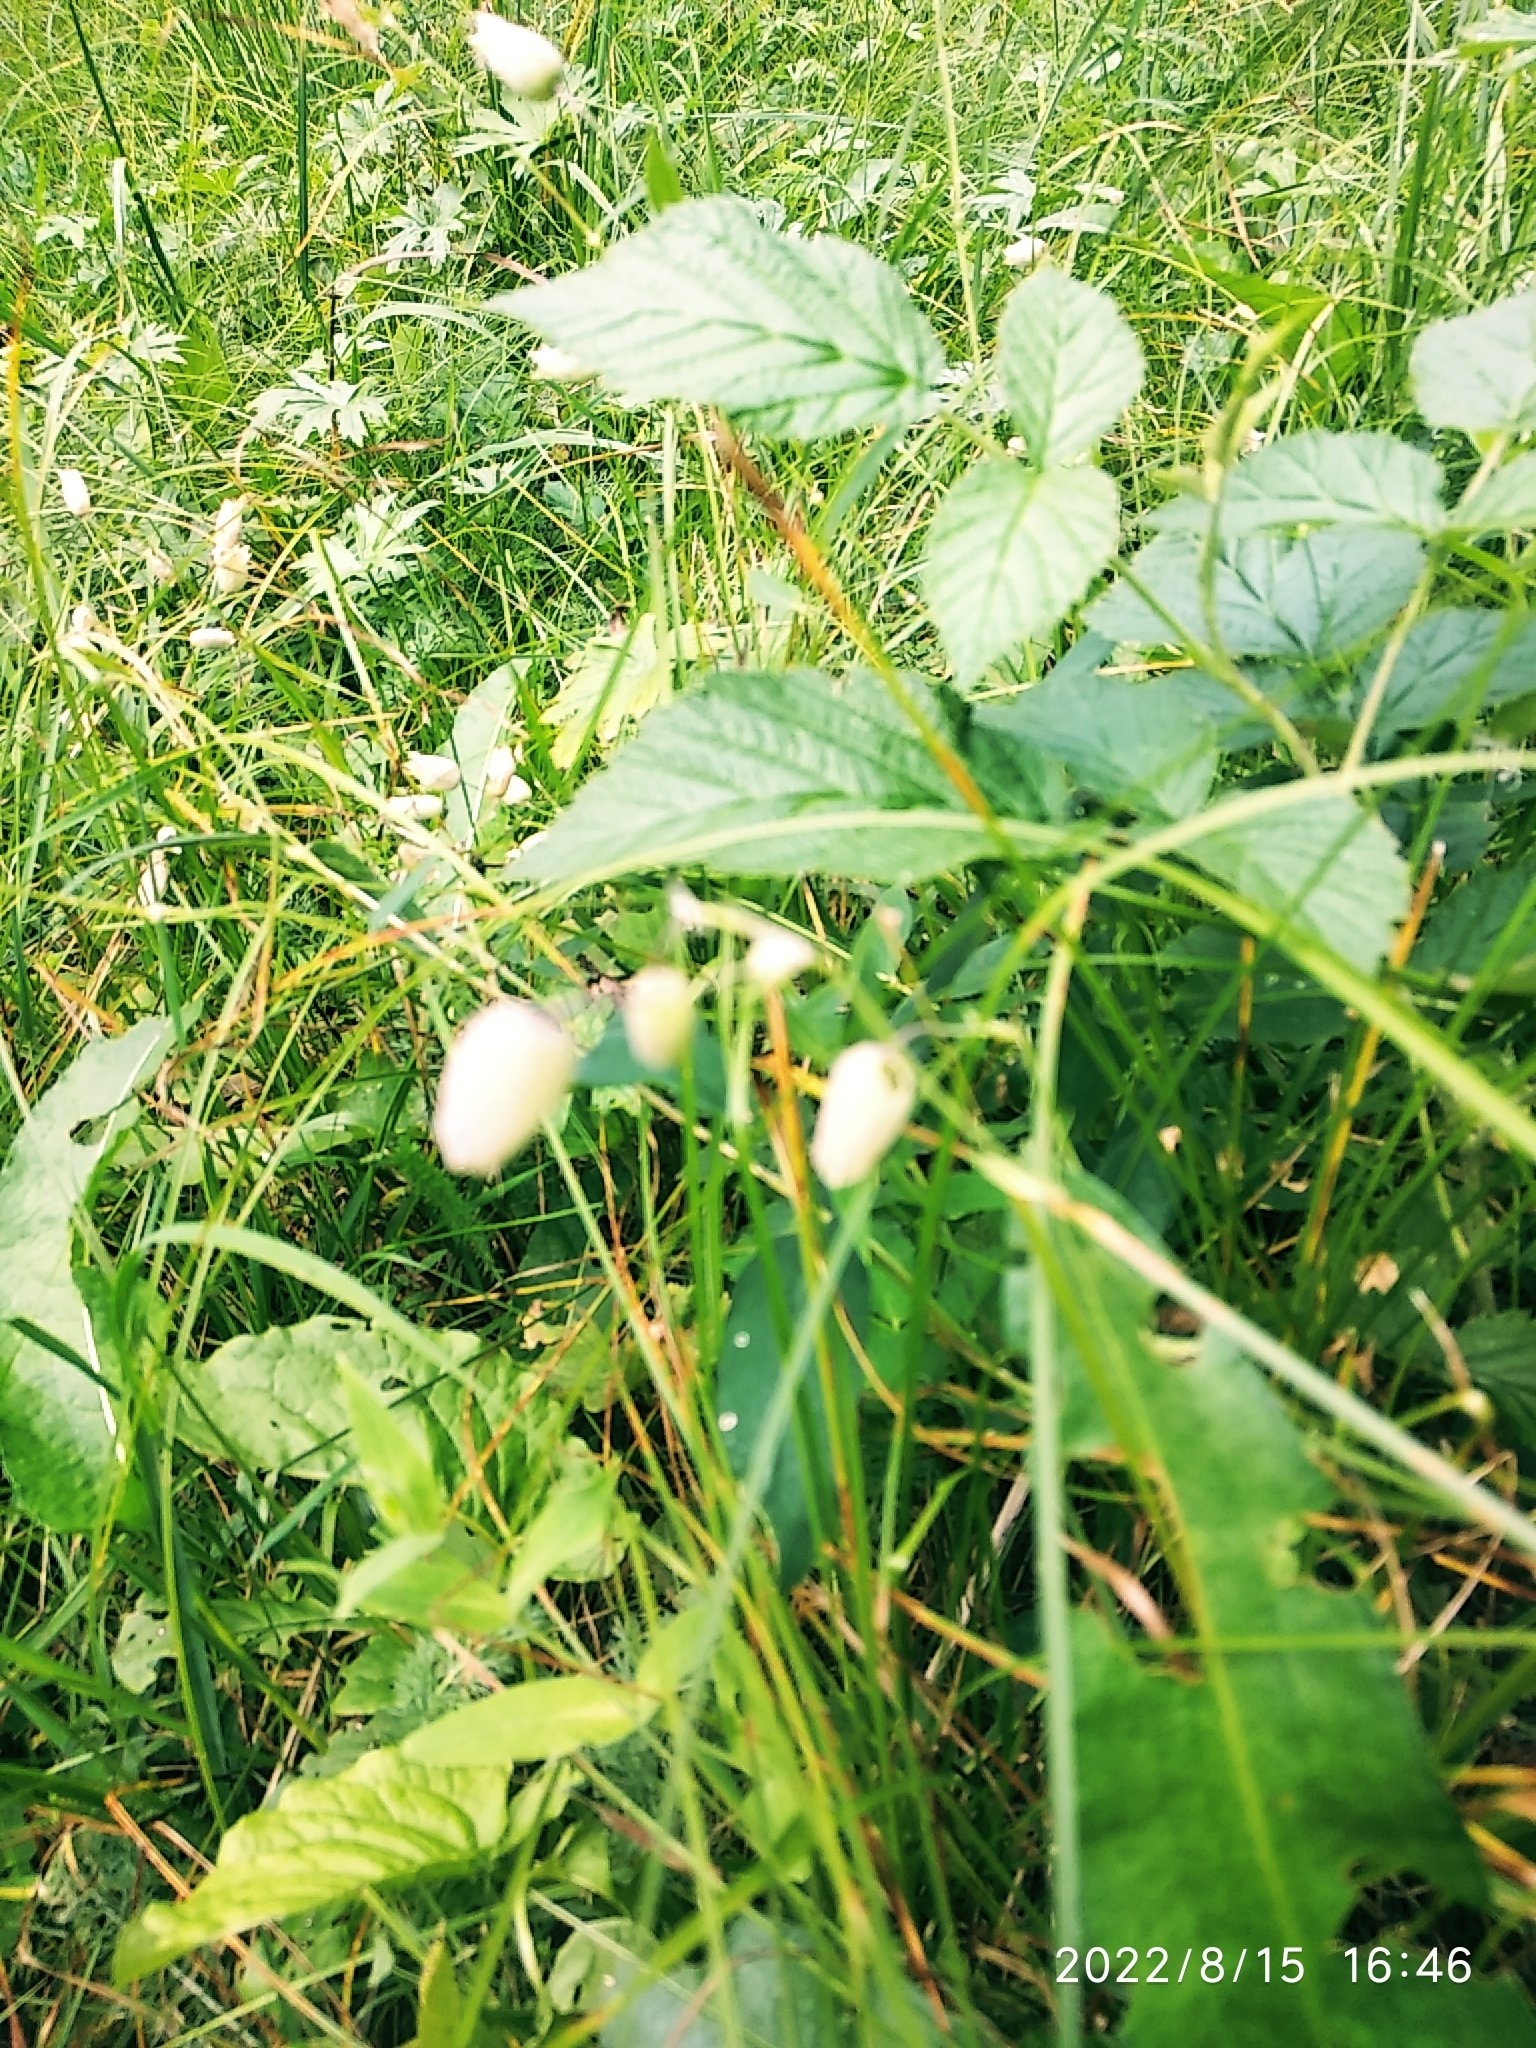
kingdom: Plantae
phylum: Tracheophyta
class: Magnoliopsida
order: Caryophyllales
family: Caryophyllaceae
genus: Silene
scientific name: Silene vulgaris
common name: Bladder campion
